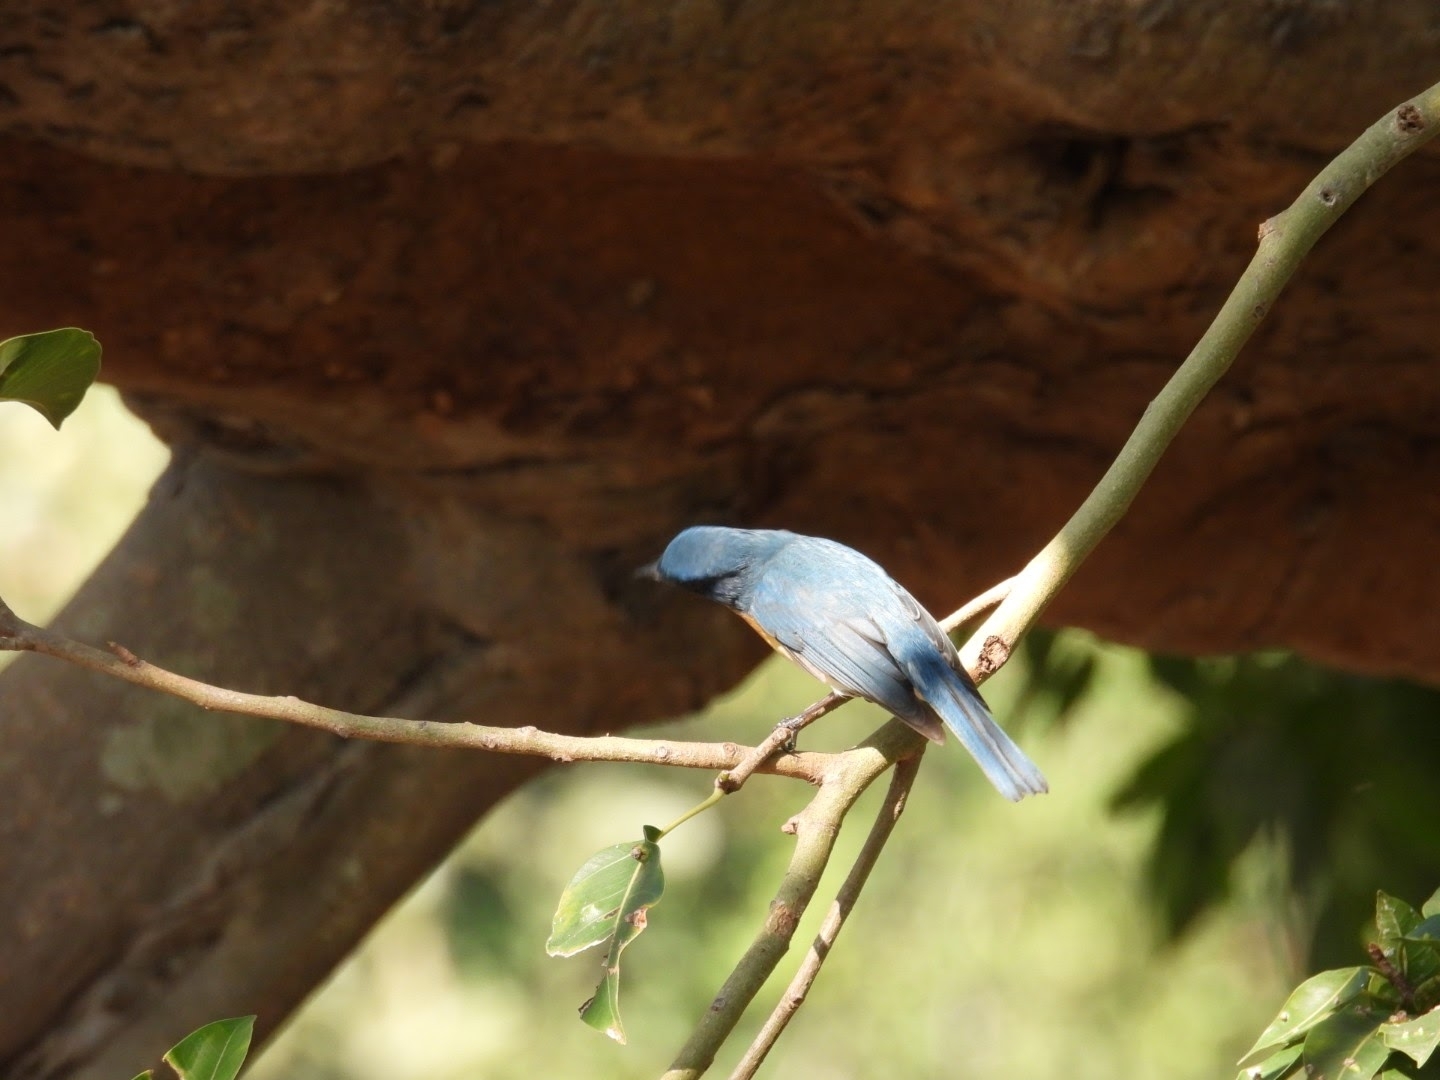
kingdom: Animalia
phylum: Chordata
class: Aves
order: Passeriformes
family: Muscicapidae
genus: Cyornis
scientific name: Cyornis tickelliae
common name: Tickell's blue flycatcher
